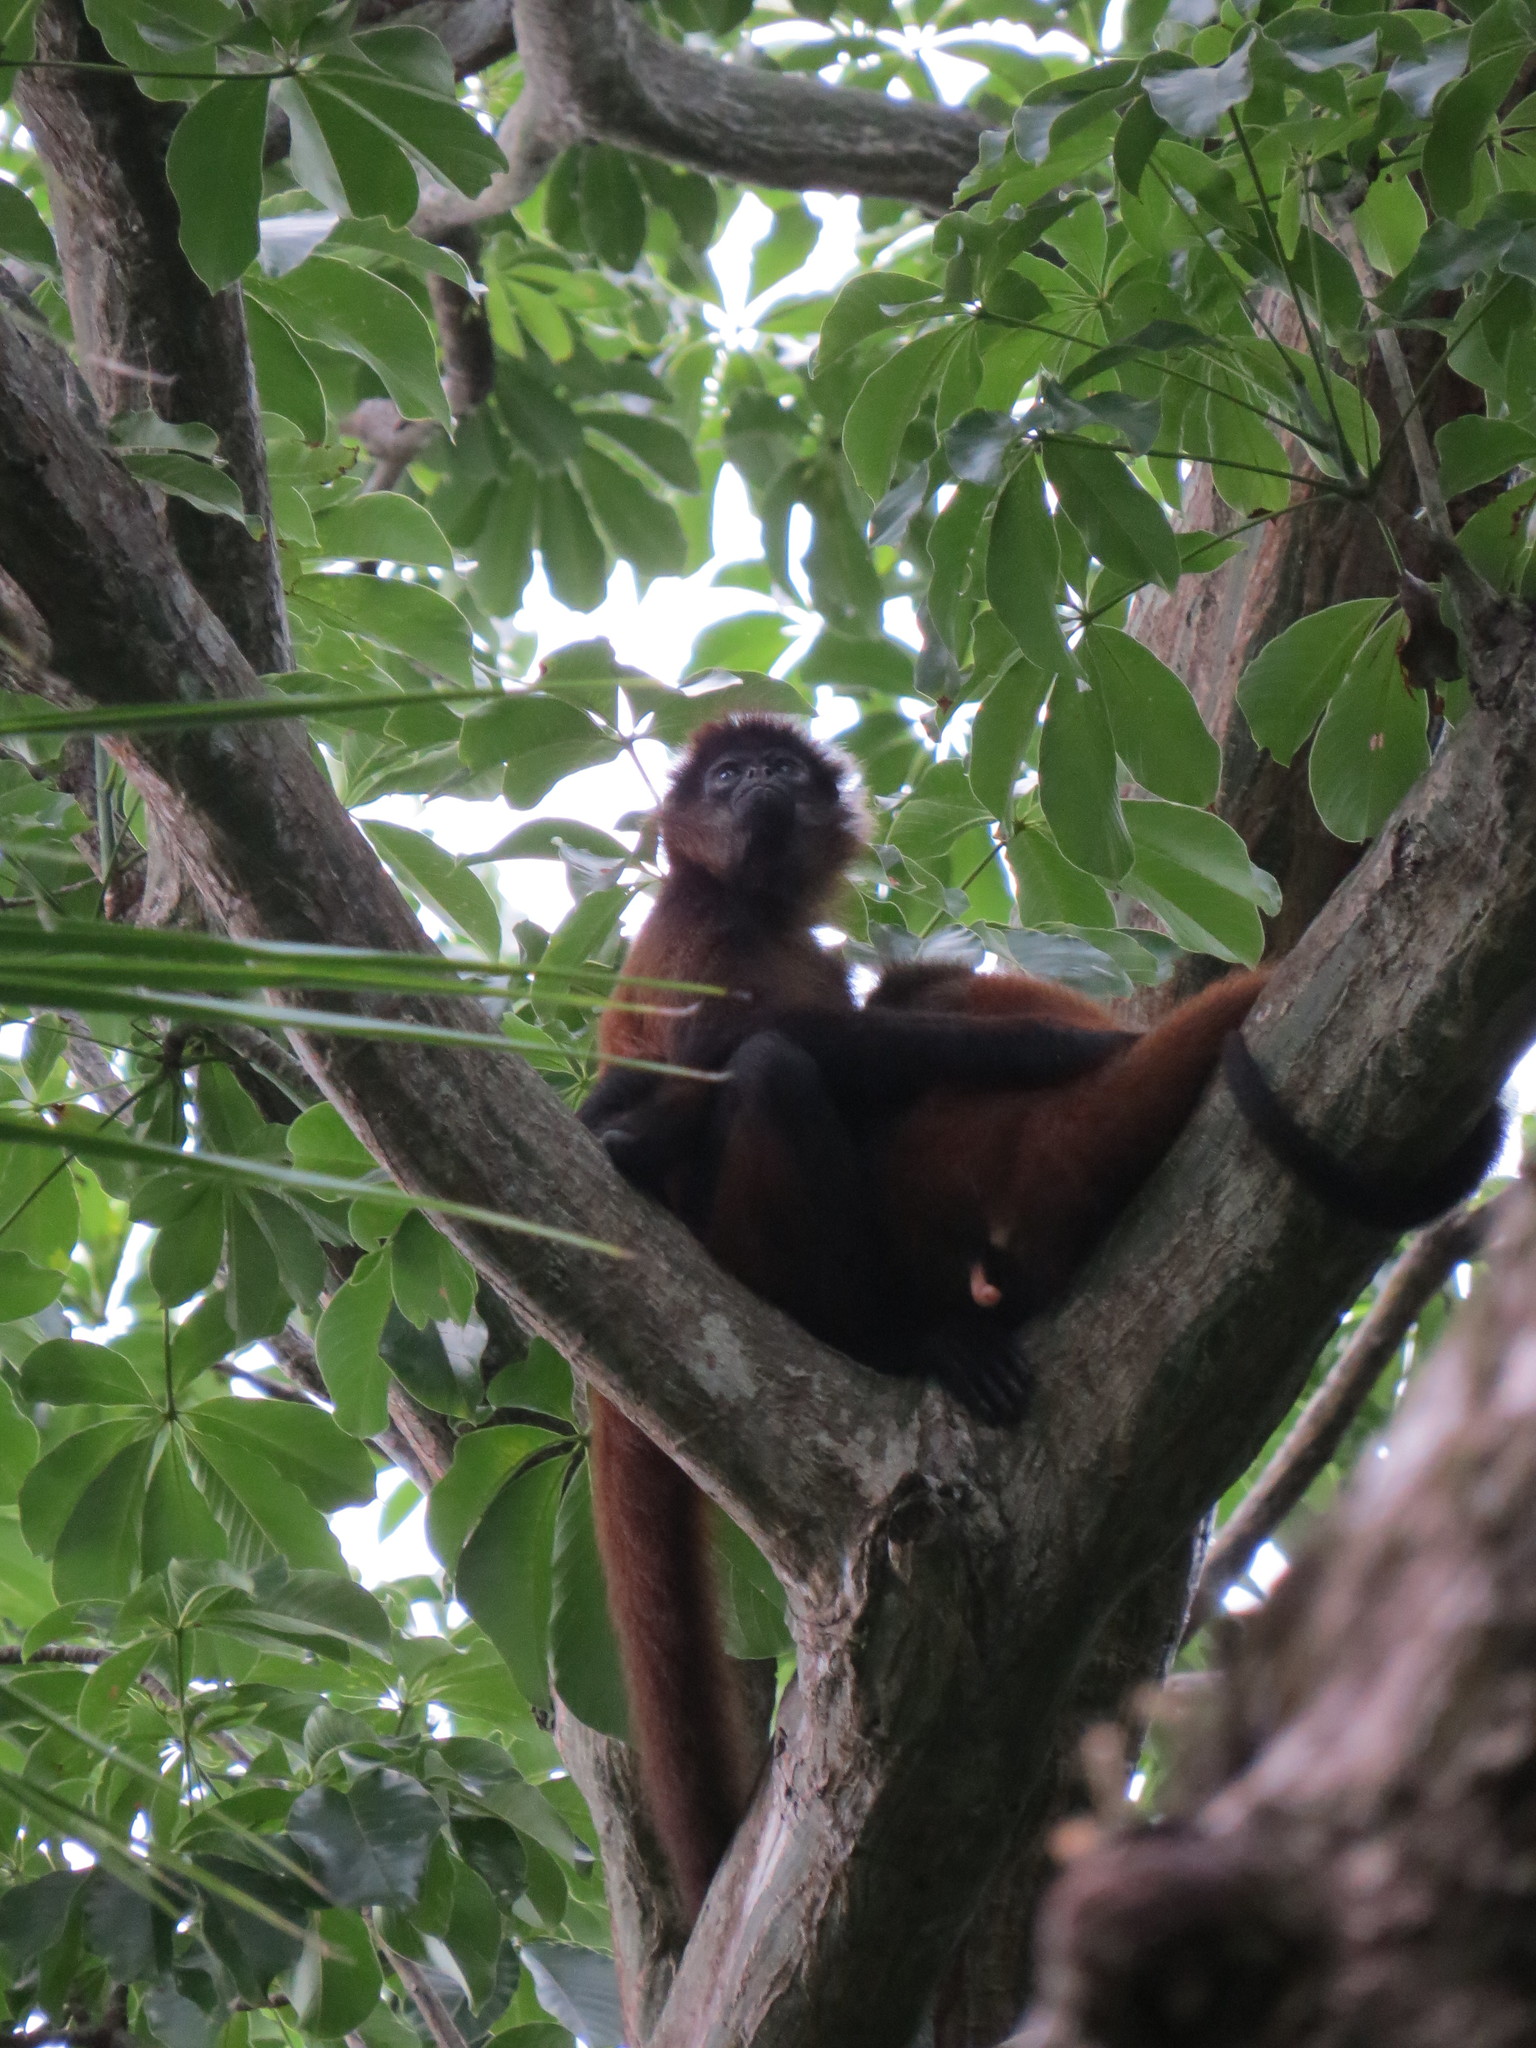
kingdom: Animalia
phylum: Chordata
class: Mammalia
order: Primates
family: Atelidae
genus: Ateles
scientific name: Ateles geoffroyi
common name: Black-handed spider monkey
